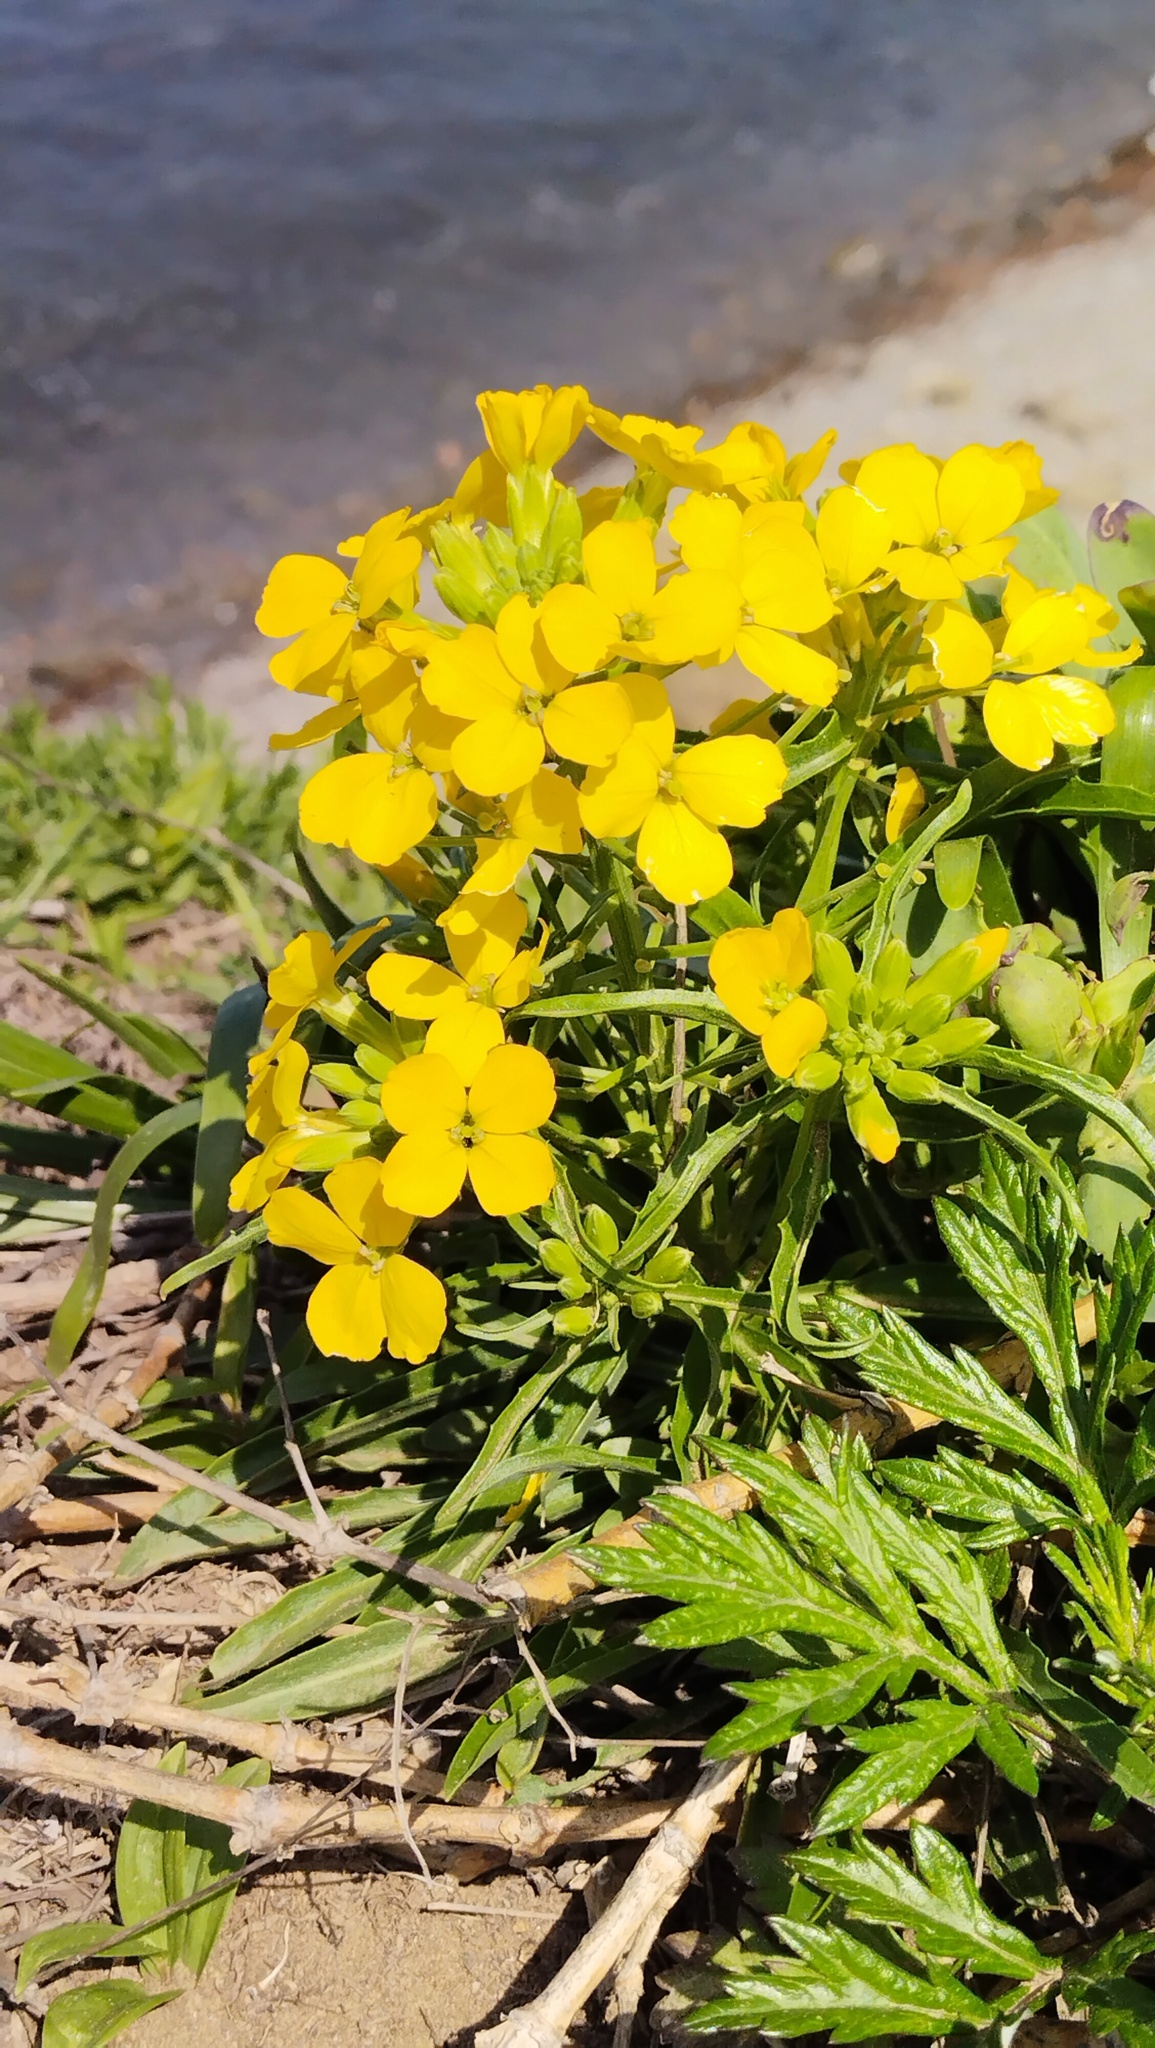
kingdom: Plantae
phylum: Tracheophyta
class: Magnoliopsida
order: Brassicales
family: Brassicaceae
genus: Erysimum
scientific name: Erysimum amurense
